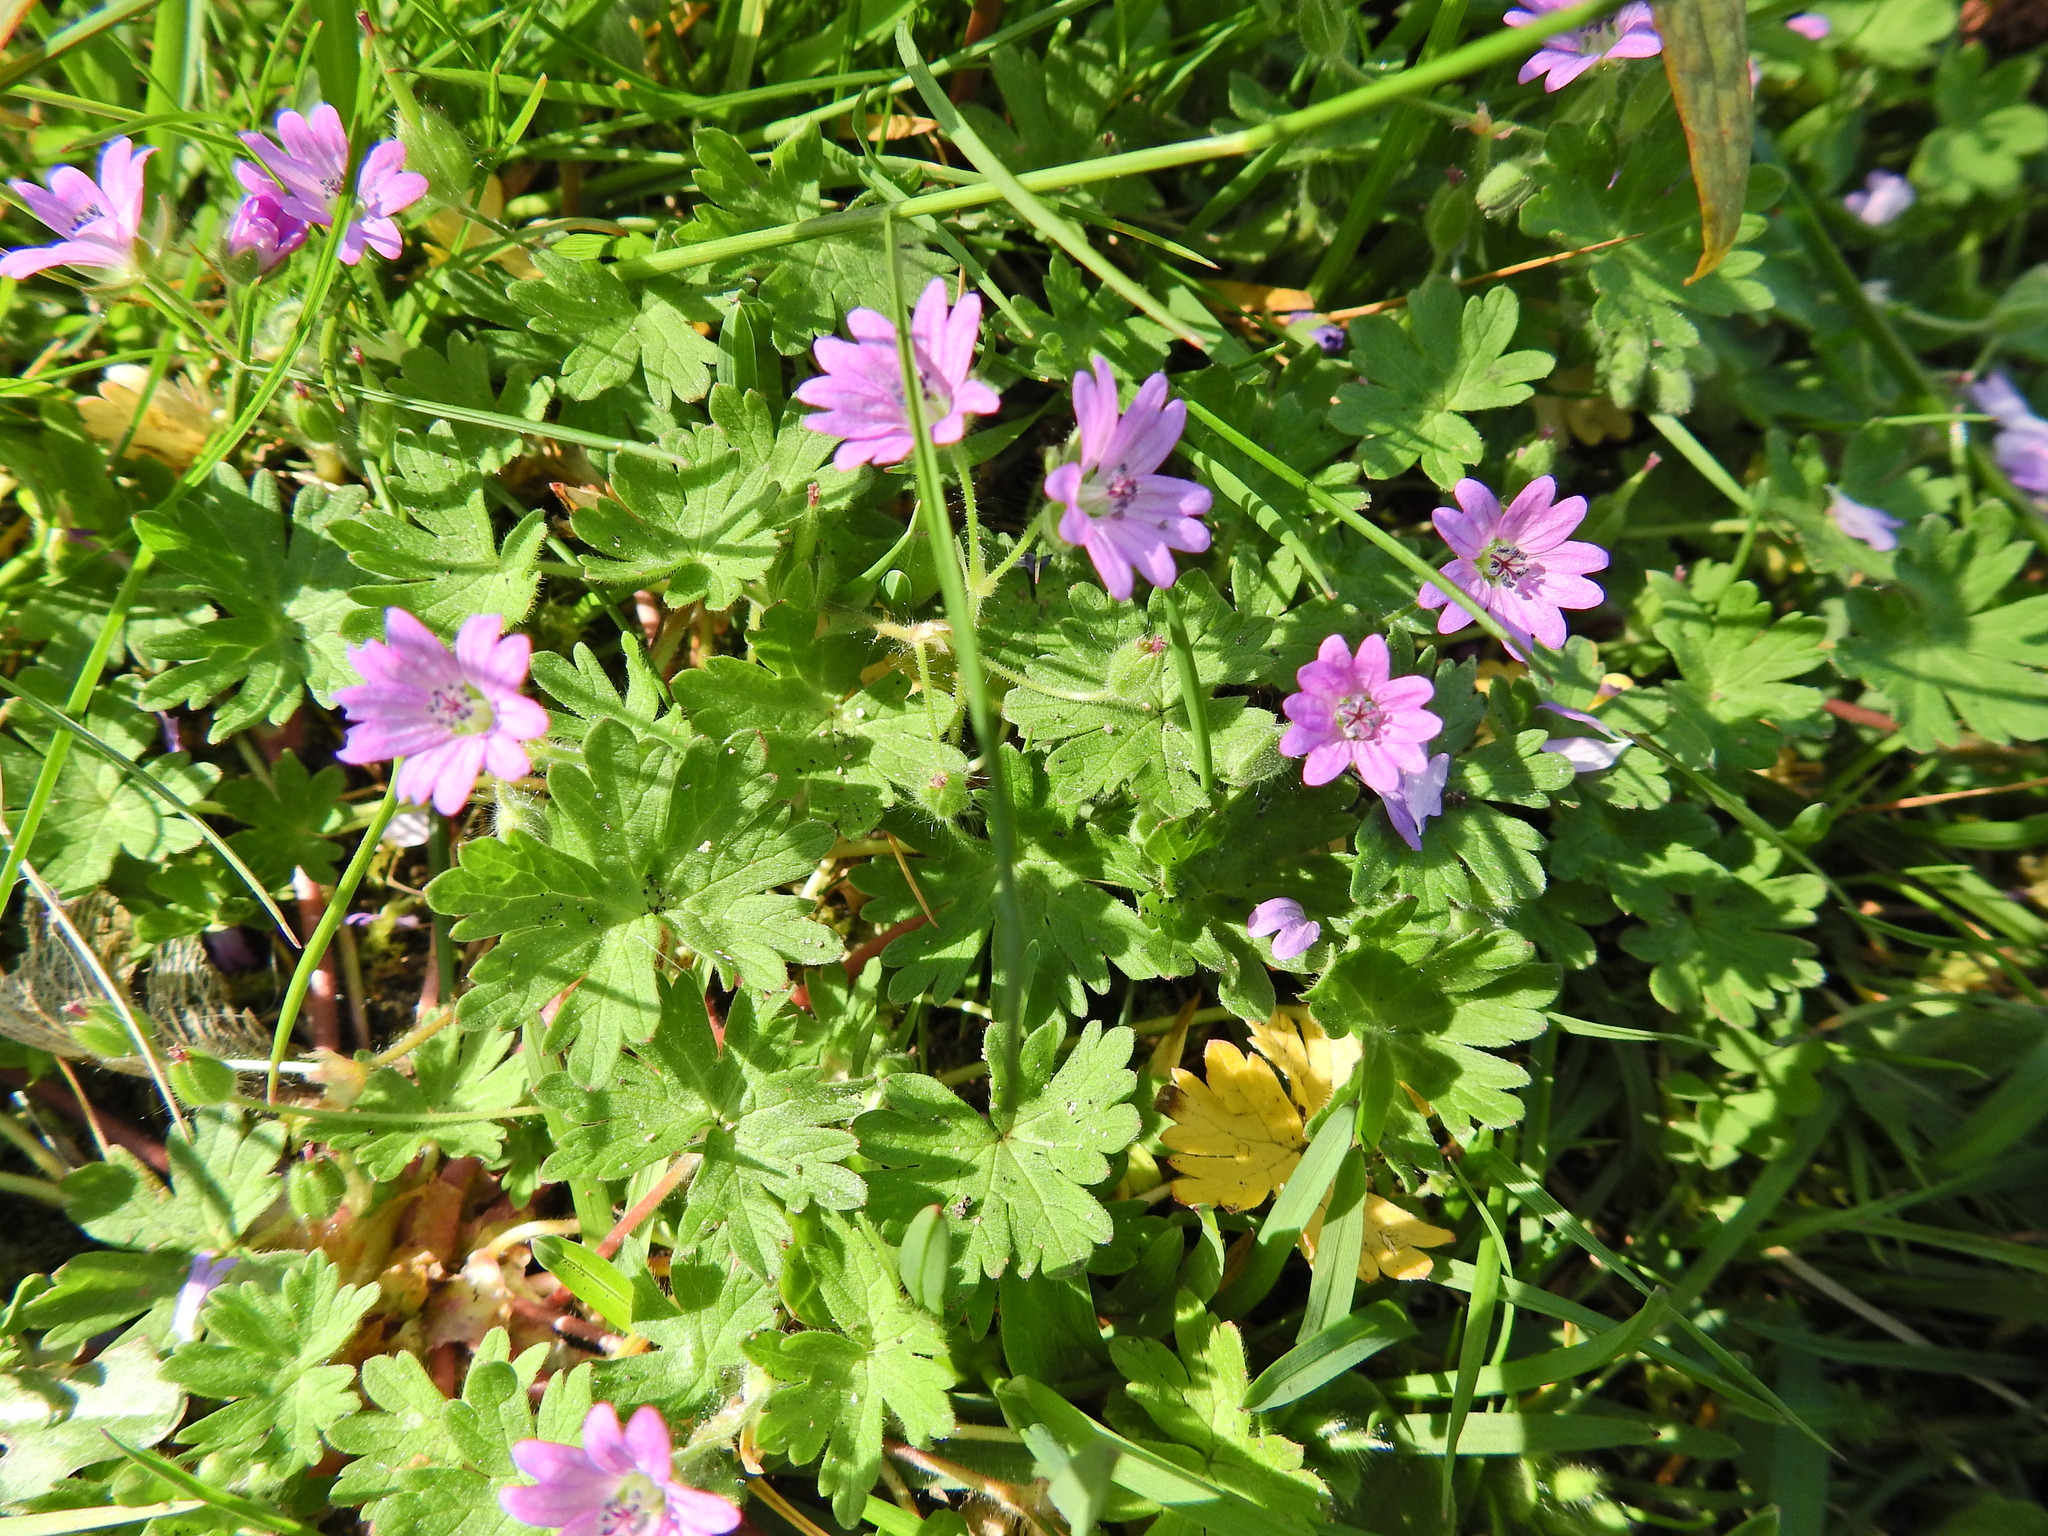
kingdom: Plantae
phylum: Tracheophyta
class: Magnoliopsida
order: Geraniales
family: Geraniaceae
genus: Geranium
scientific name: Geranium molle
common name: Dove's-foot crane's-bill
